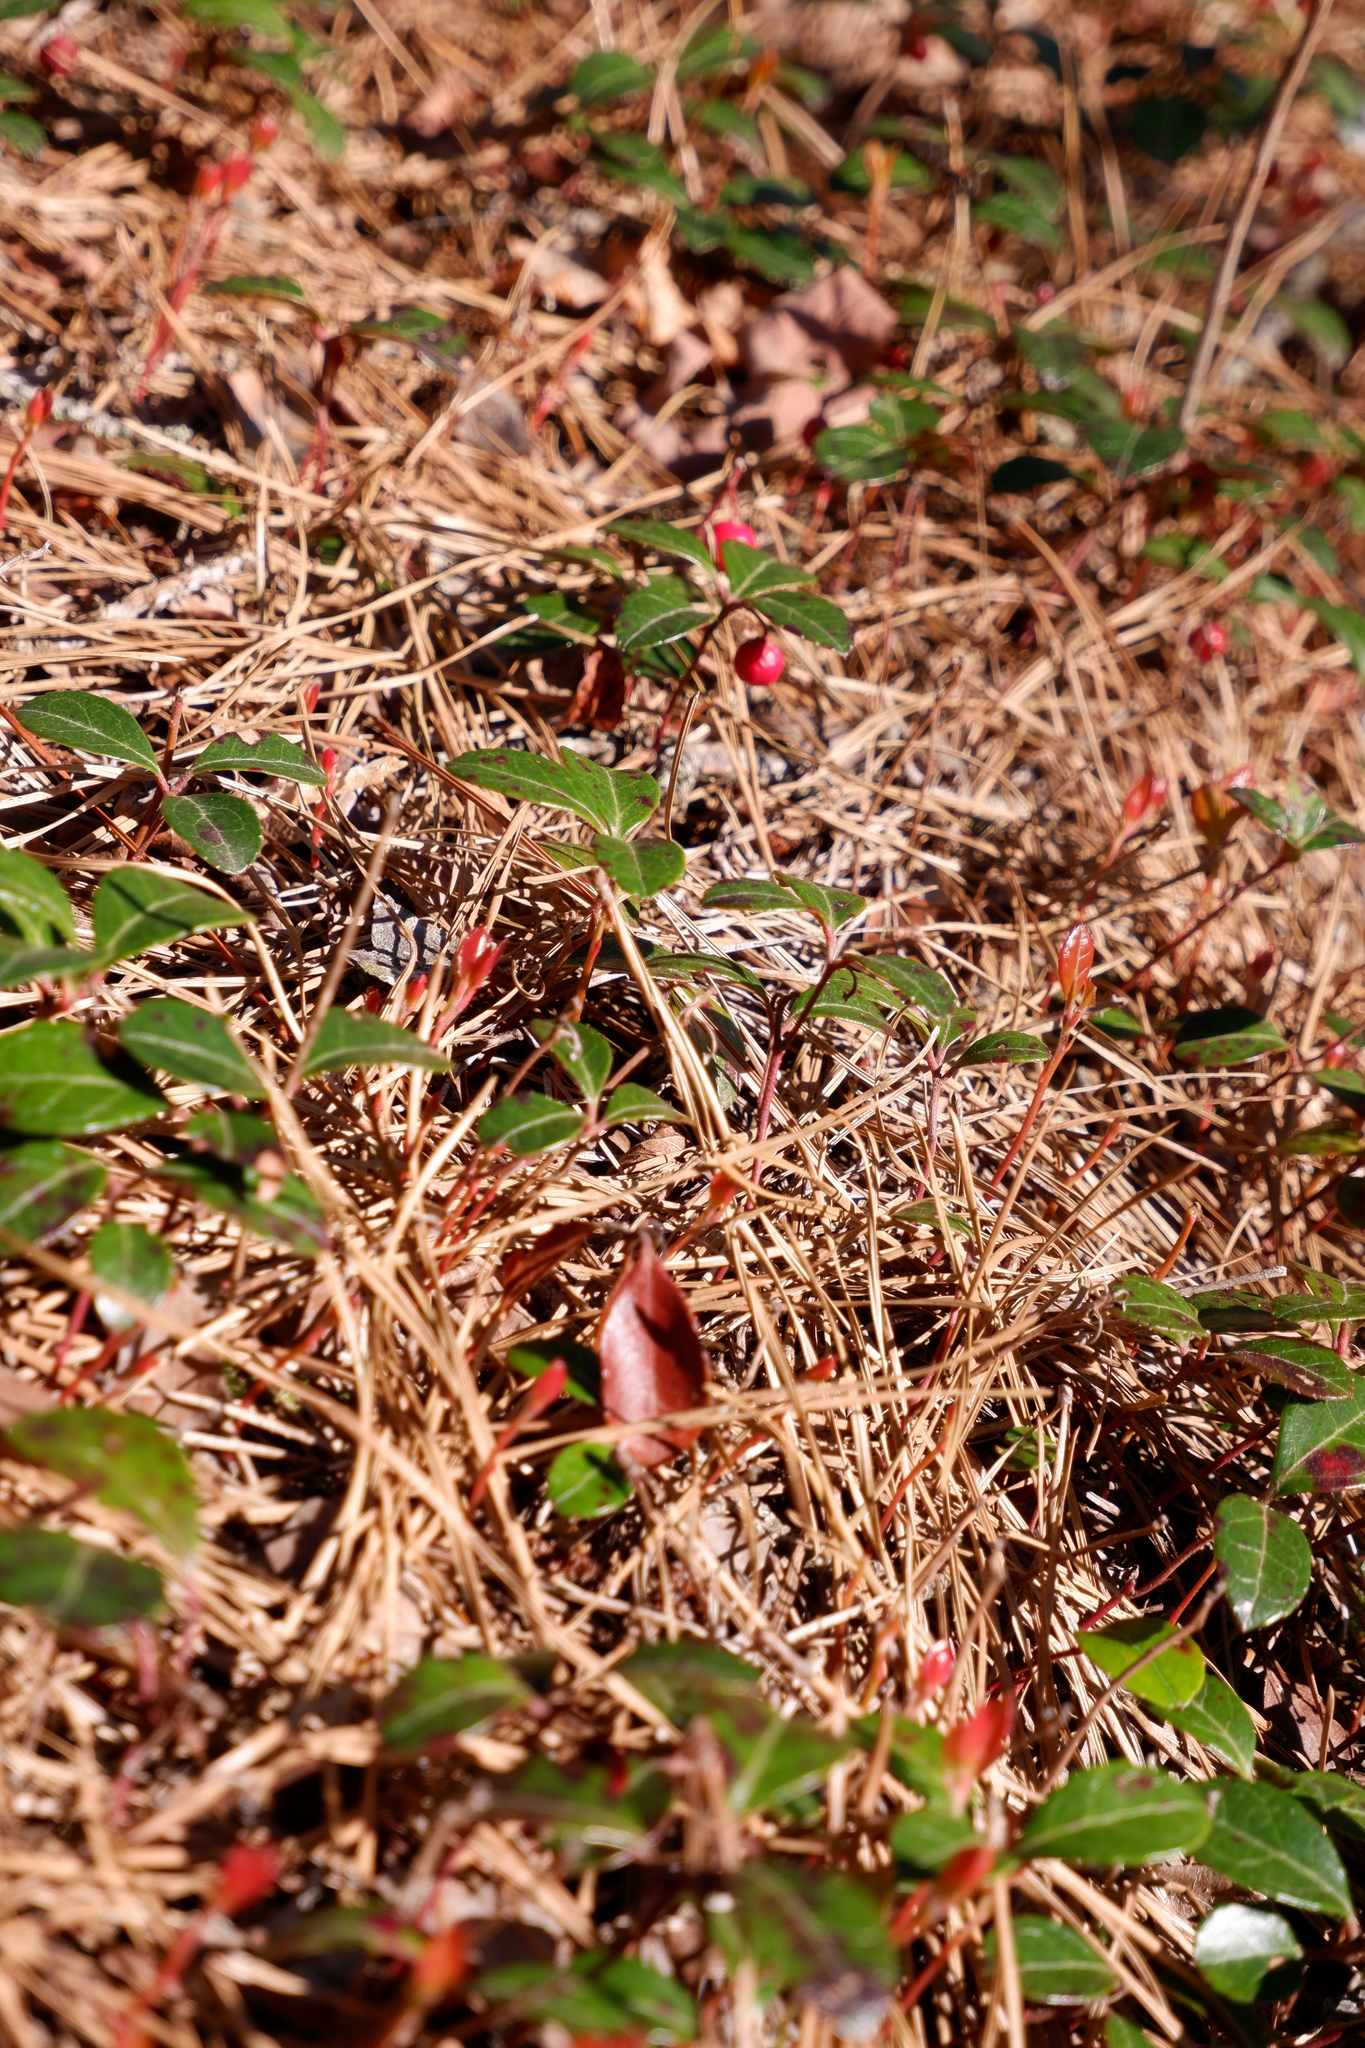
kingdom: Plantae
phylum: Tracheophyta
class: Magnoliopsida
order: Ericales
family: Ericaceae
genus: Gaultheria
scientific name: Gaultheria procumbens
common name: Checkerberry
